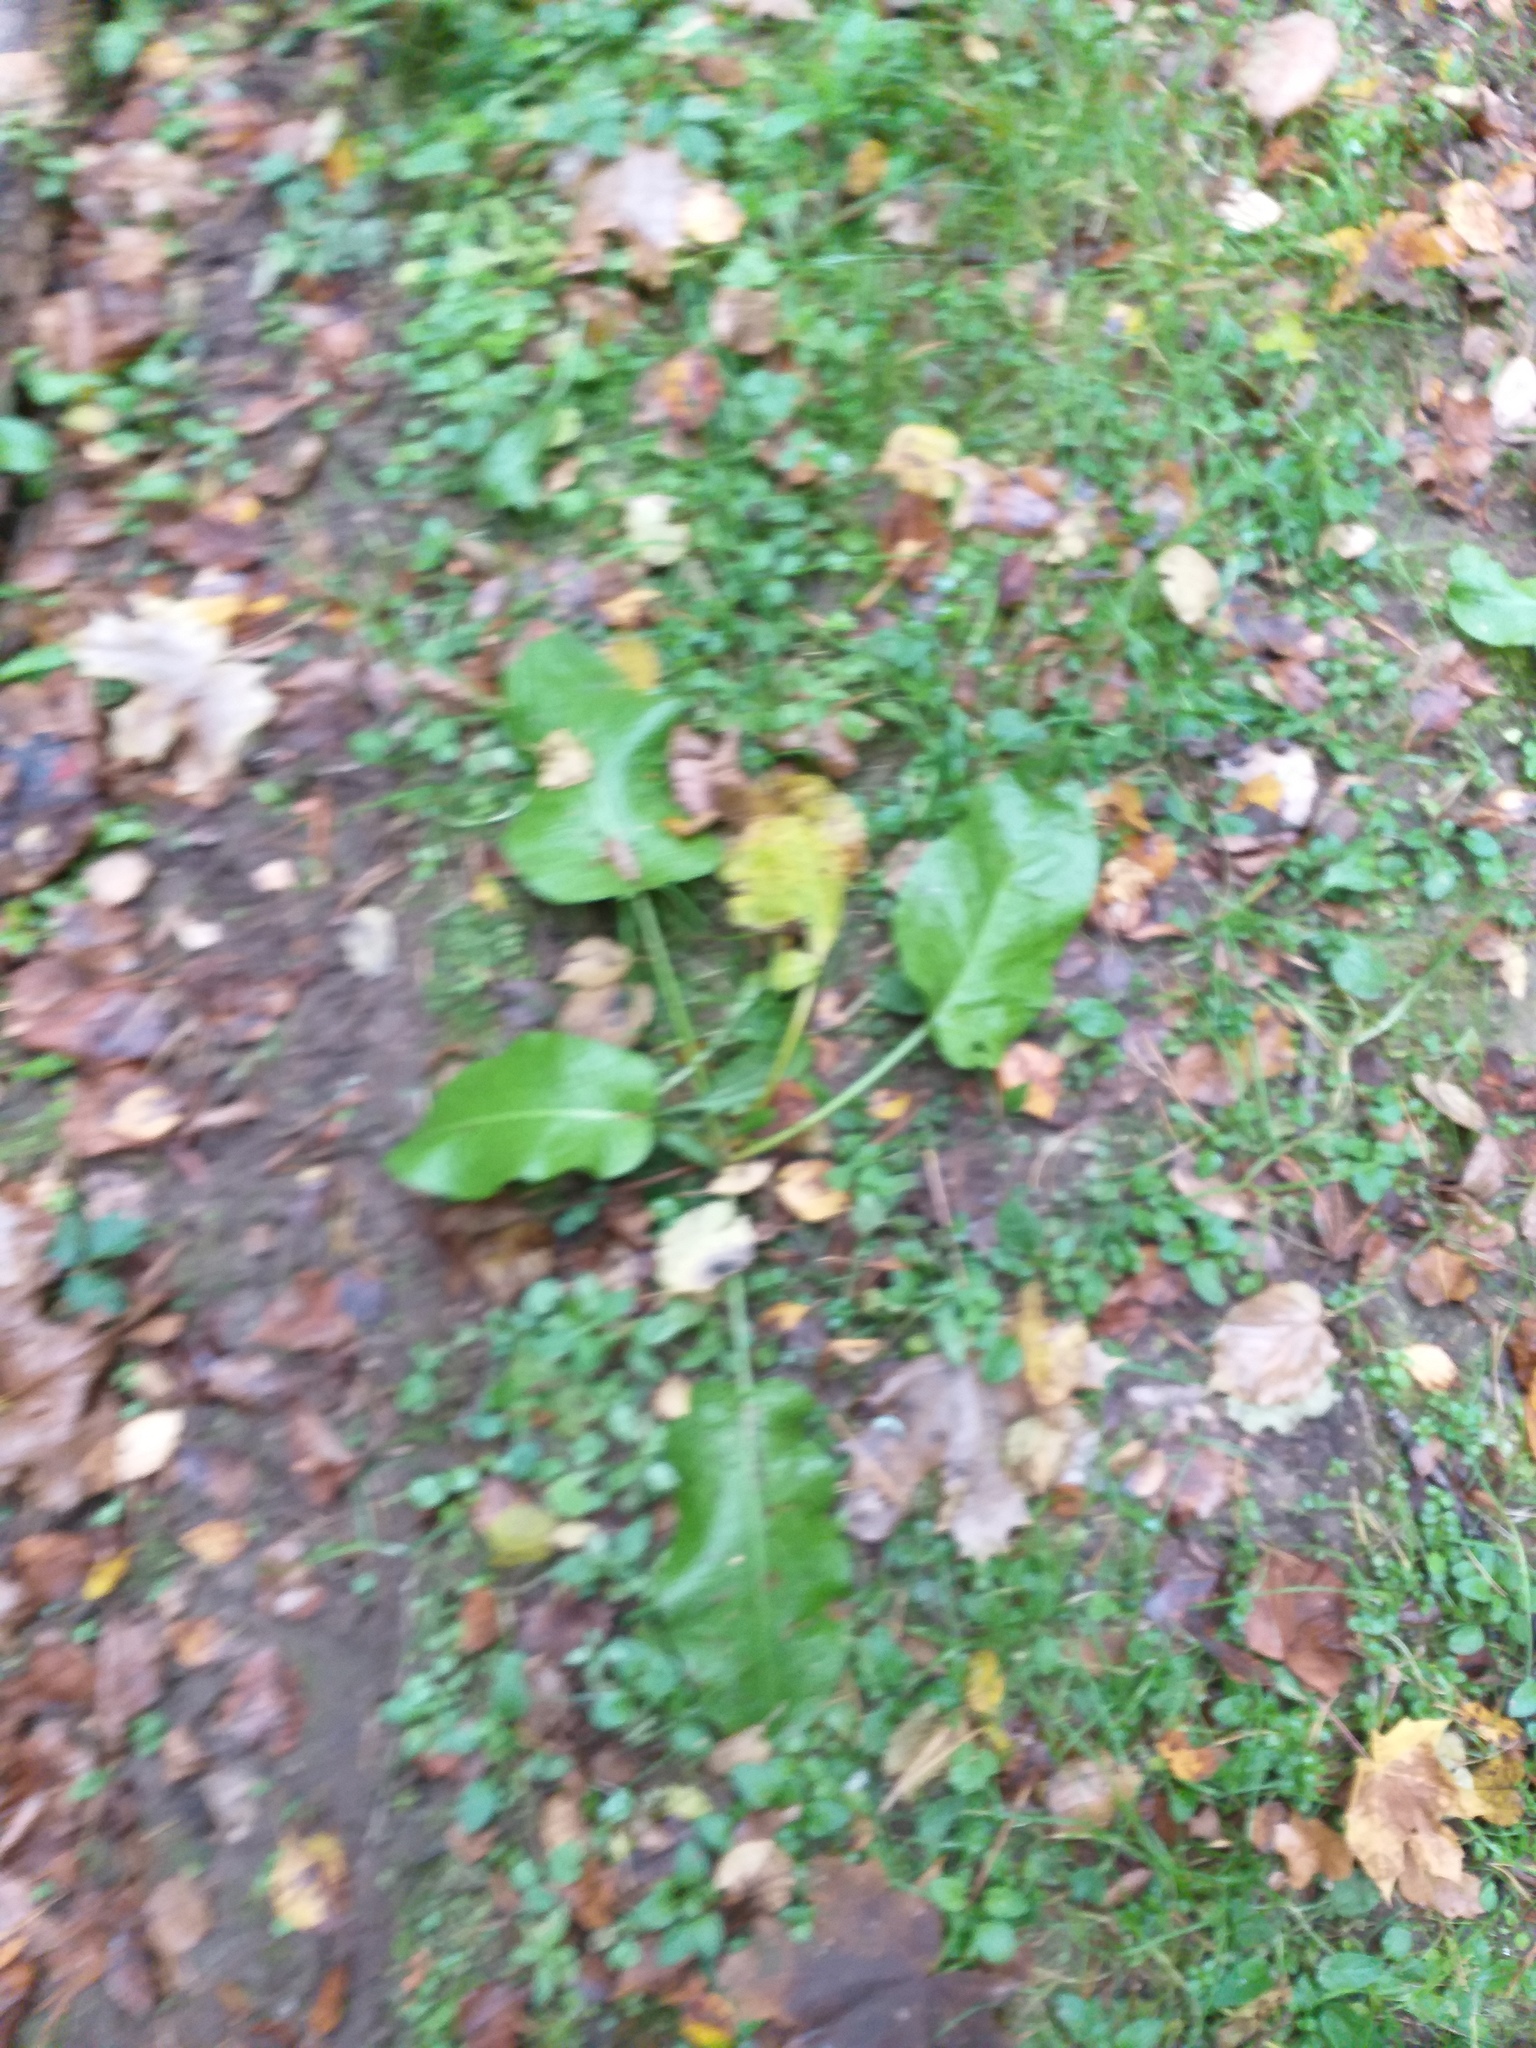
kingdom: Plantae
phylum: Tracheophyta
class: Magnoliopsida
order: Caryophyllales
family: Polygonaceae
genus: Rumex
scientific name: Rumex obtusifolius
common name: Bitter dock
